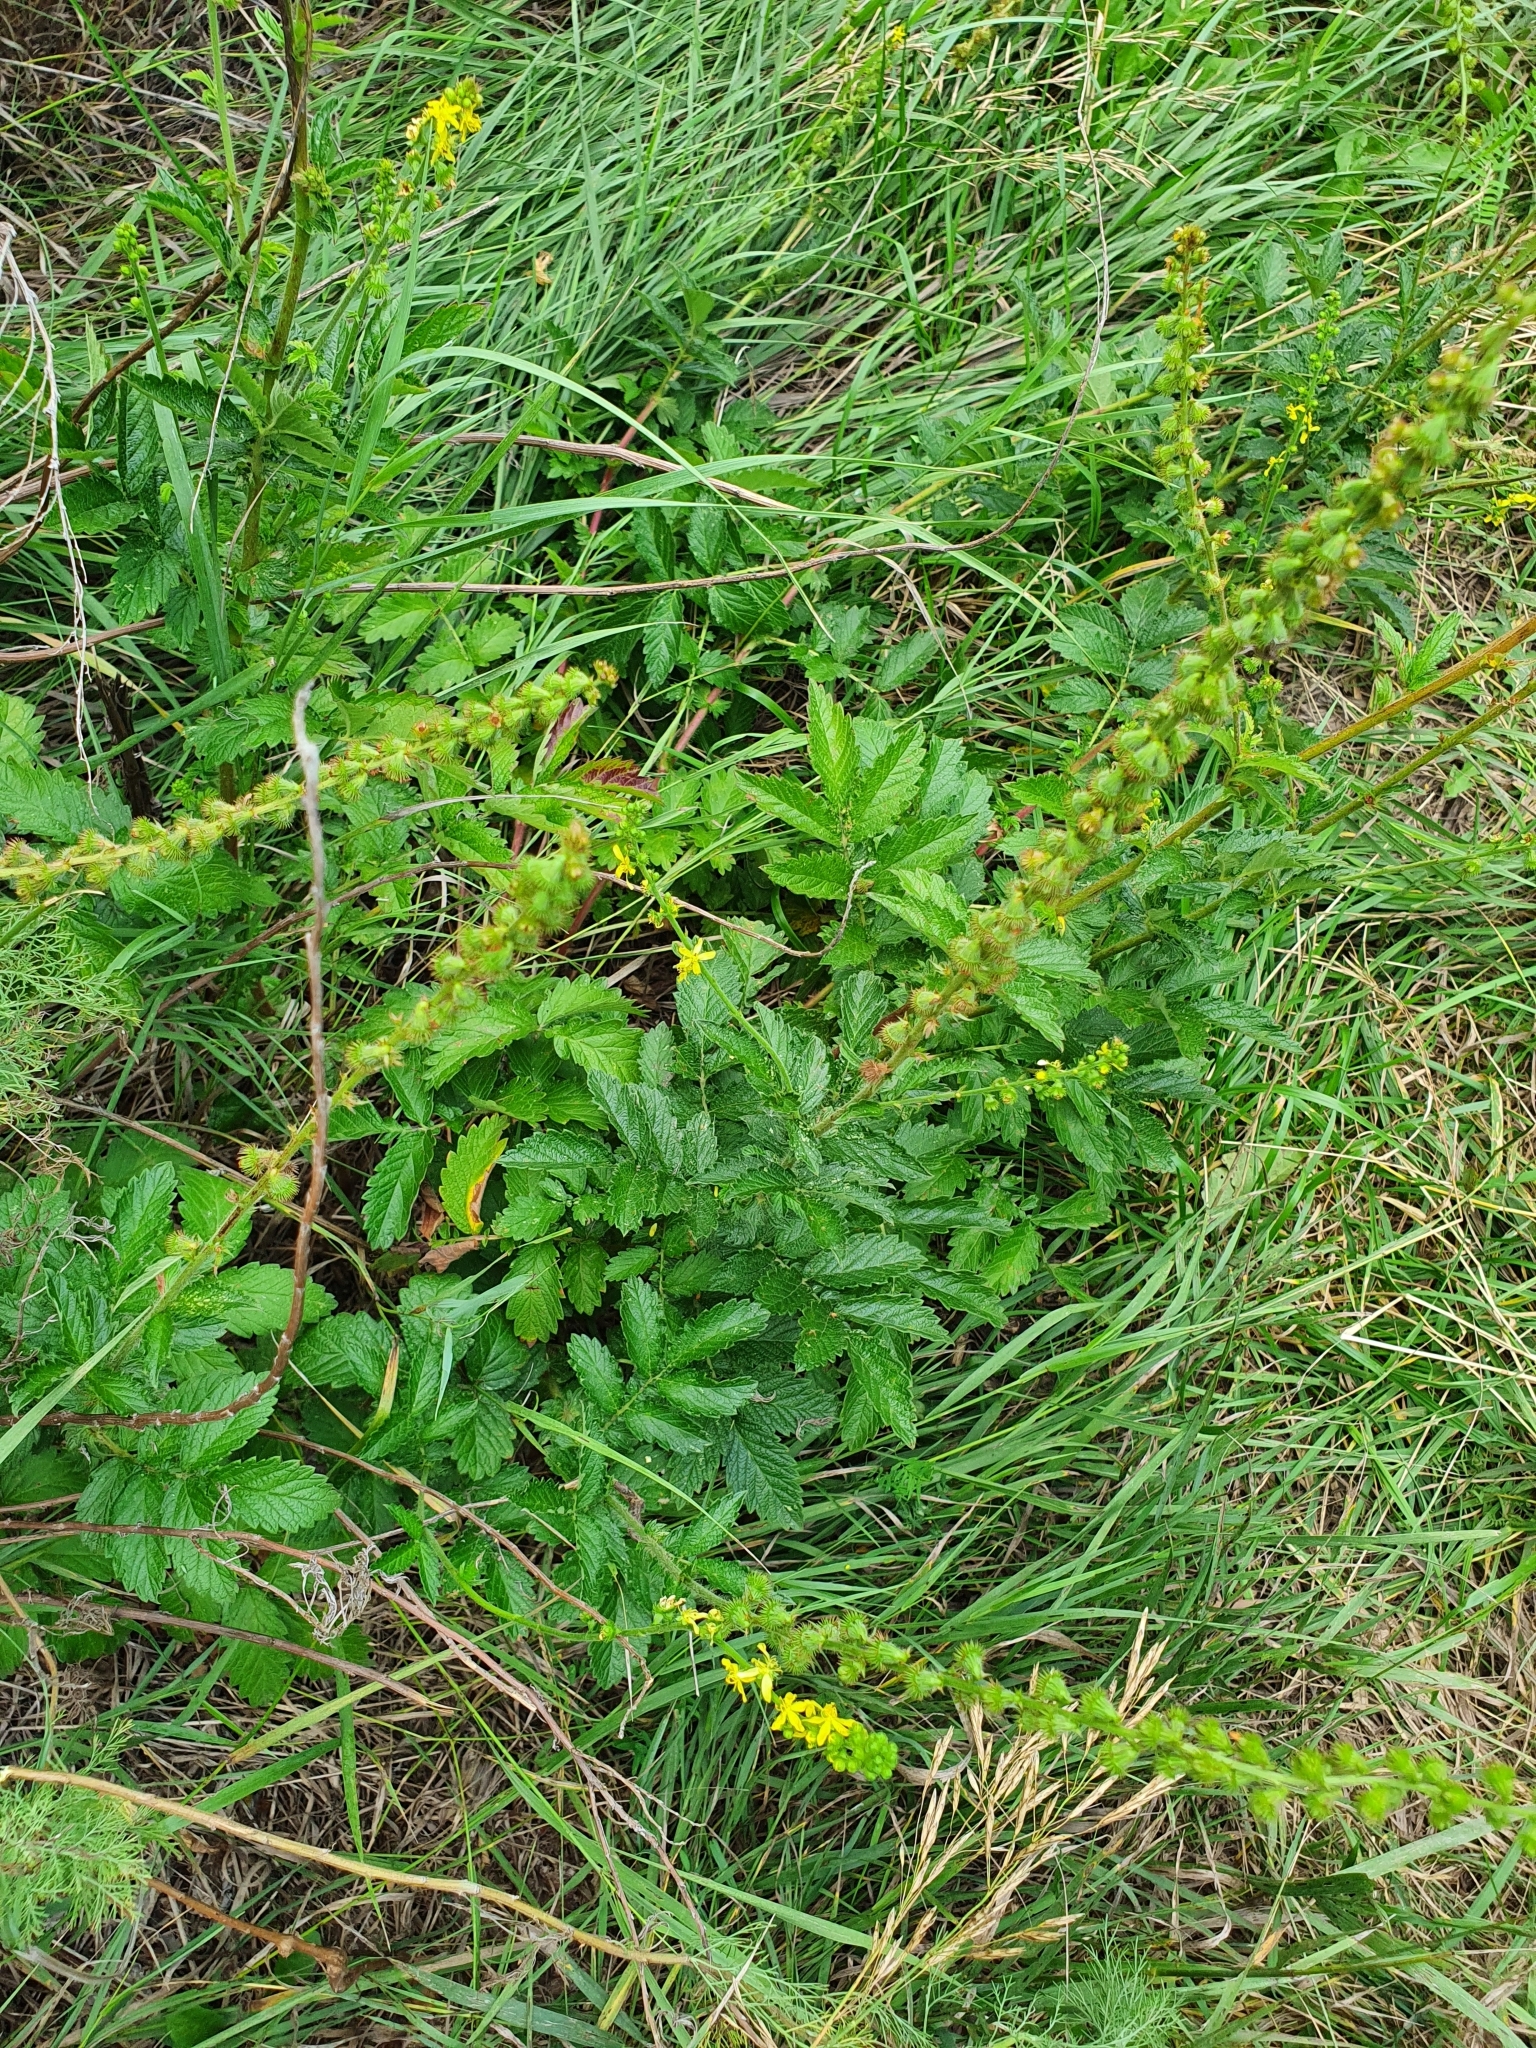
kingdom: Plantae
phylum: Tracheophyta
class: Magnoliopsida
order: Rosales
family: Rosaceae
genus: Agrimonia
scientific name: Agrimonia eupatoria
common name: Agrimony
